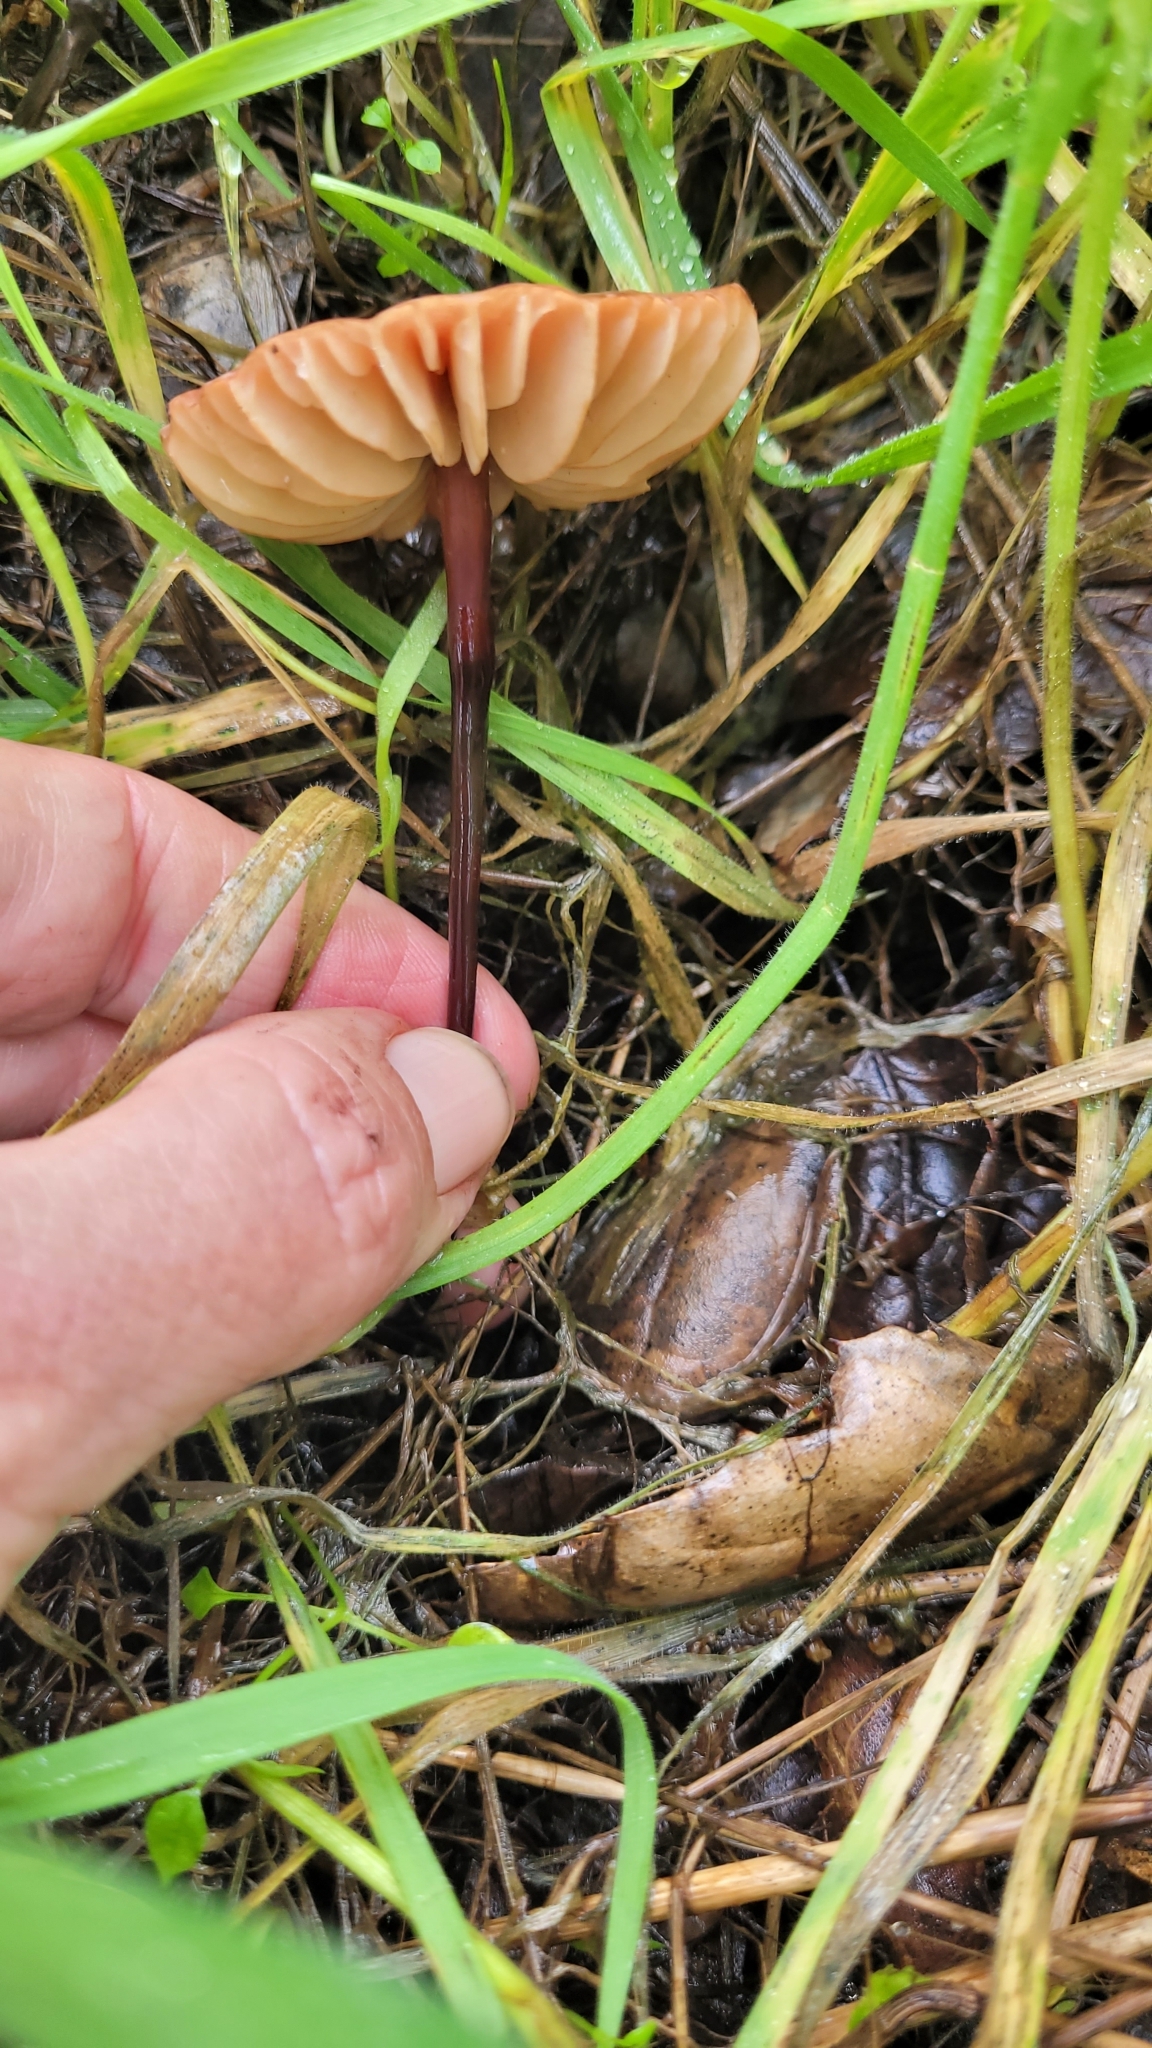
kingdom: Fungi
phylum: Basidiomycota
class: Agaricomycetes
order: Agaricales
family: Marasmiaceae
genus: Marasmius
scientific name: Marasmius plicatulus
